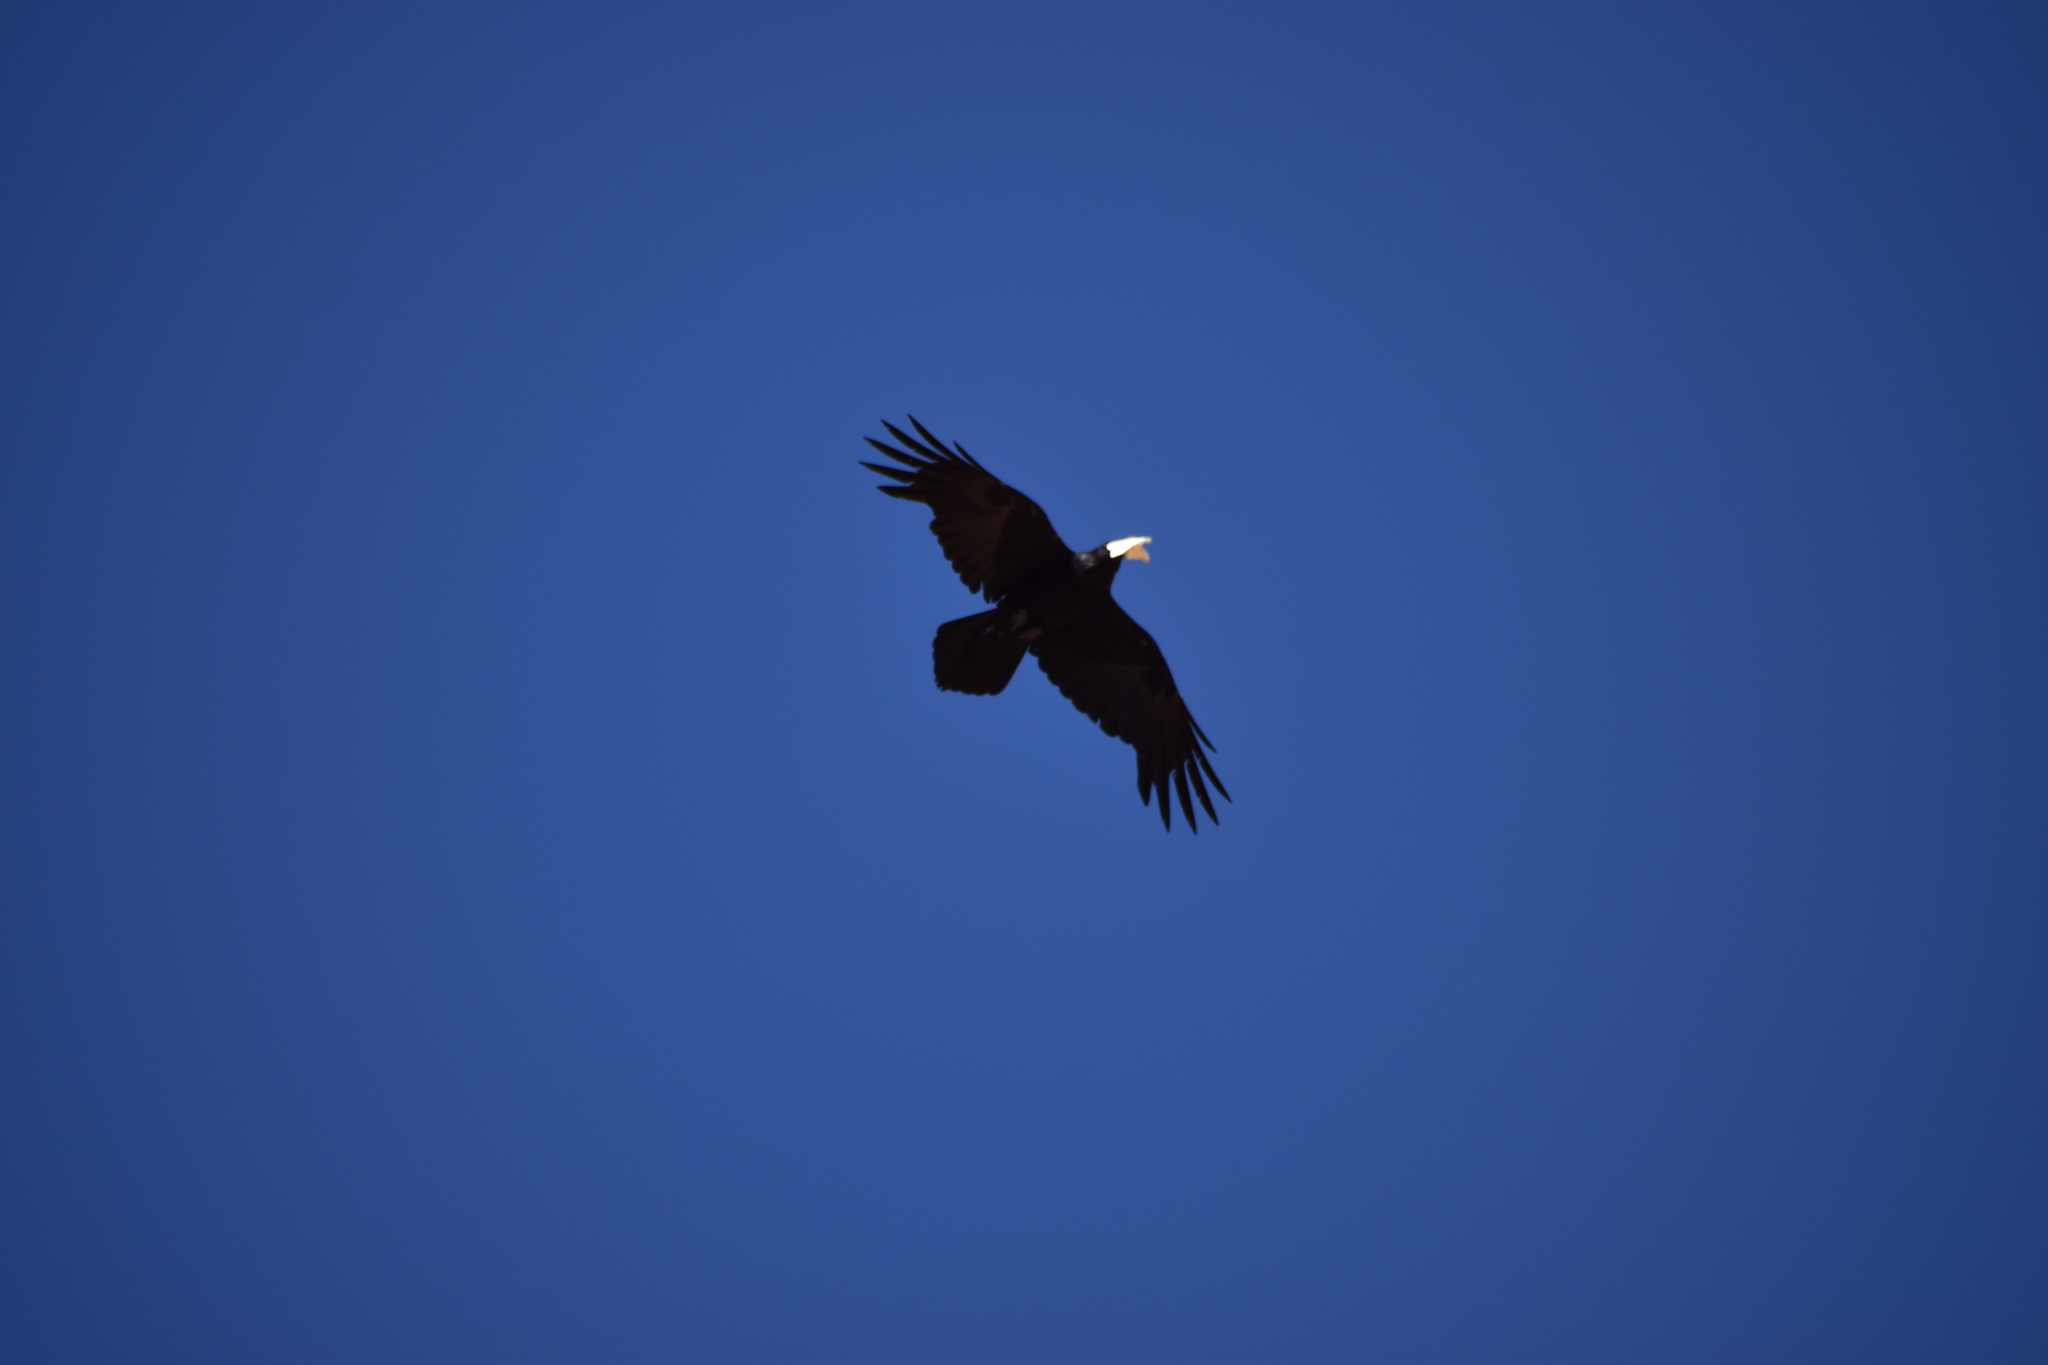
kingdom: Animalia
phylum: Chordata
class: Aves
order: Passeriformes
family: Corvidae
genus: Corvus
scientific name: Corvus corax
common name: Common raven
